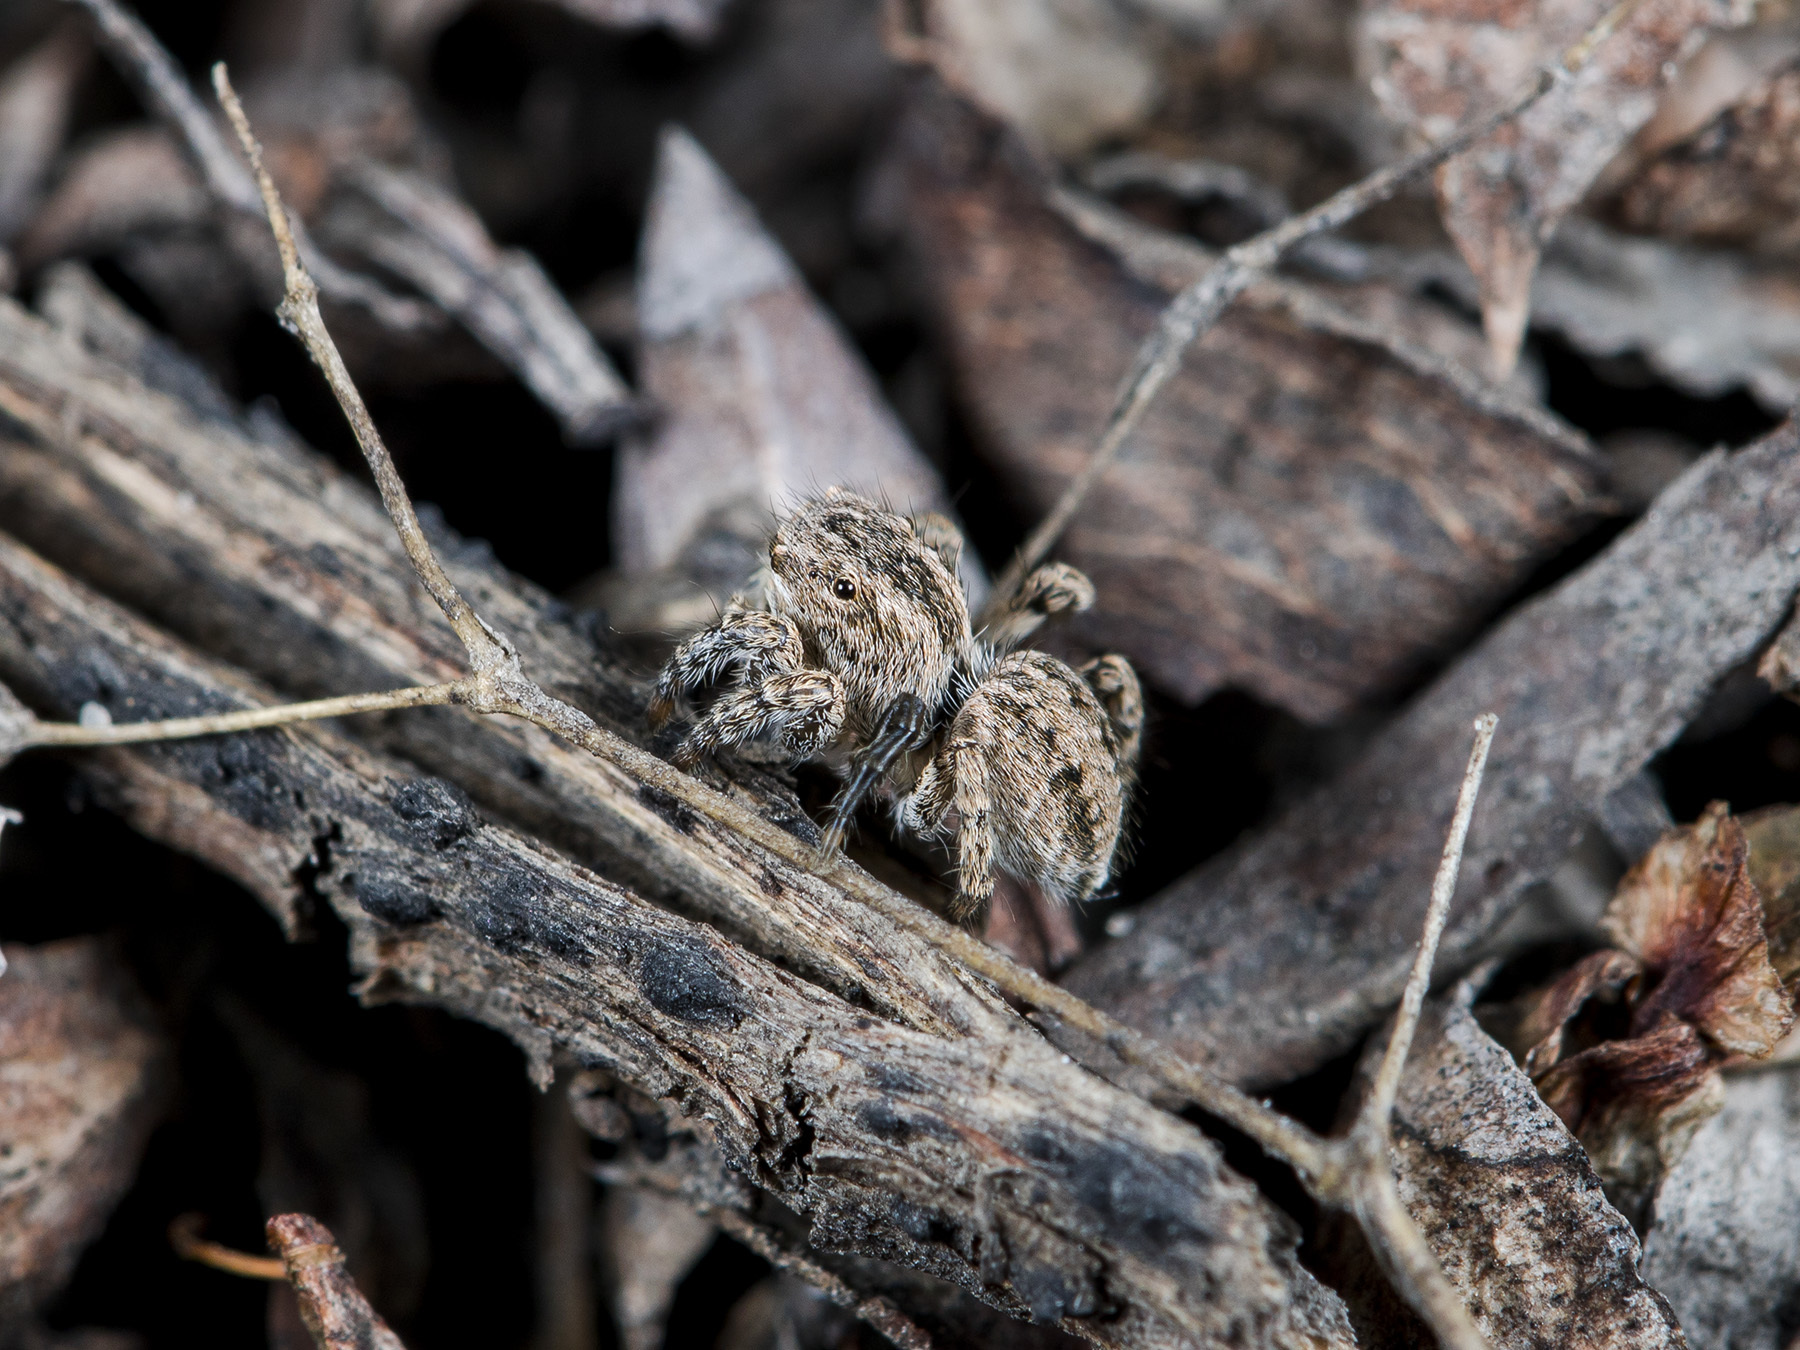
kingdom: Animalia
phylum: Arthropoda
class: Arachnida
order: Araneae
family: Salticidae
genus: Aelurillus
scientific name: Aelurillus v-insignitus
